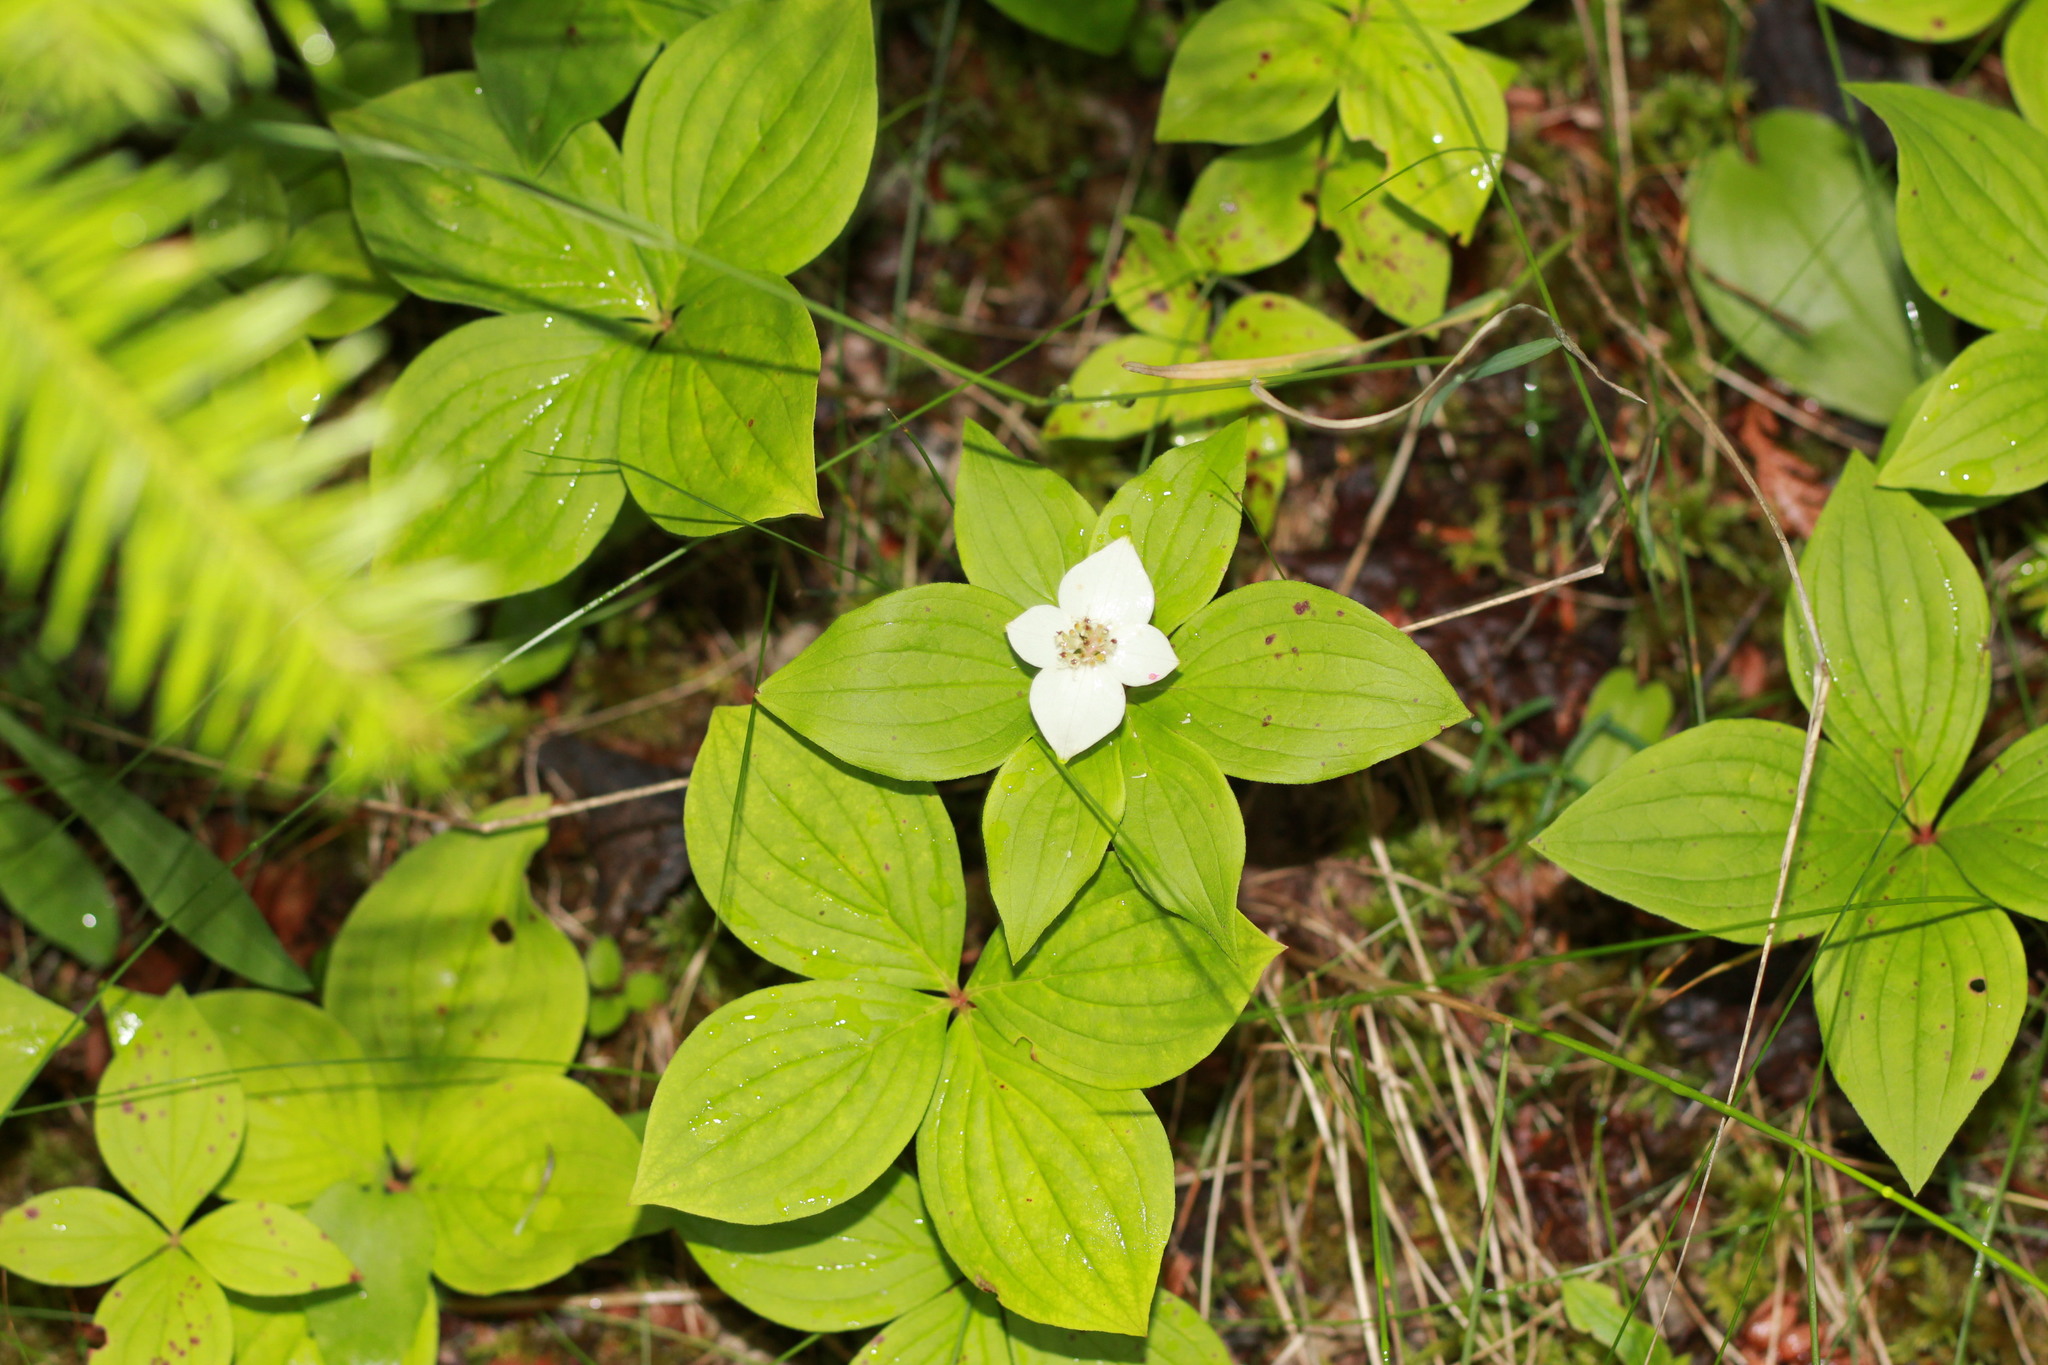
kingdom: Plantae
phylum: Tracheophyta
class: Magnoliopsida
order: Cornales
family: Cornaceae
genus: Cornus
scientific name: Cornus canadensis
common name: Creeping dogwood
